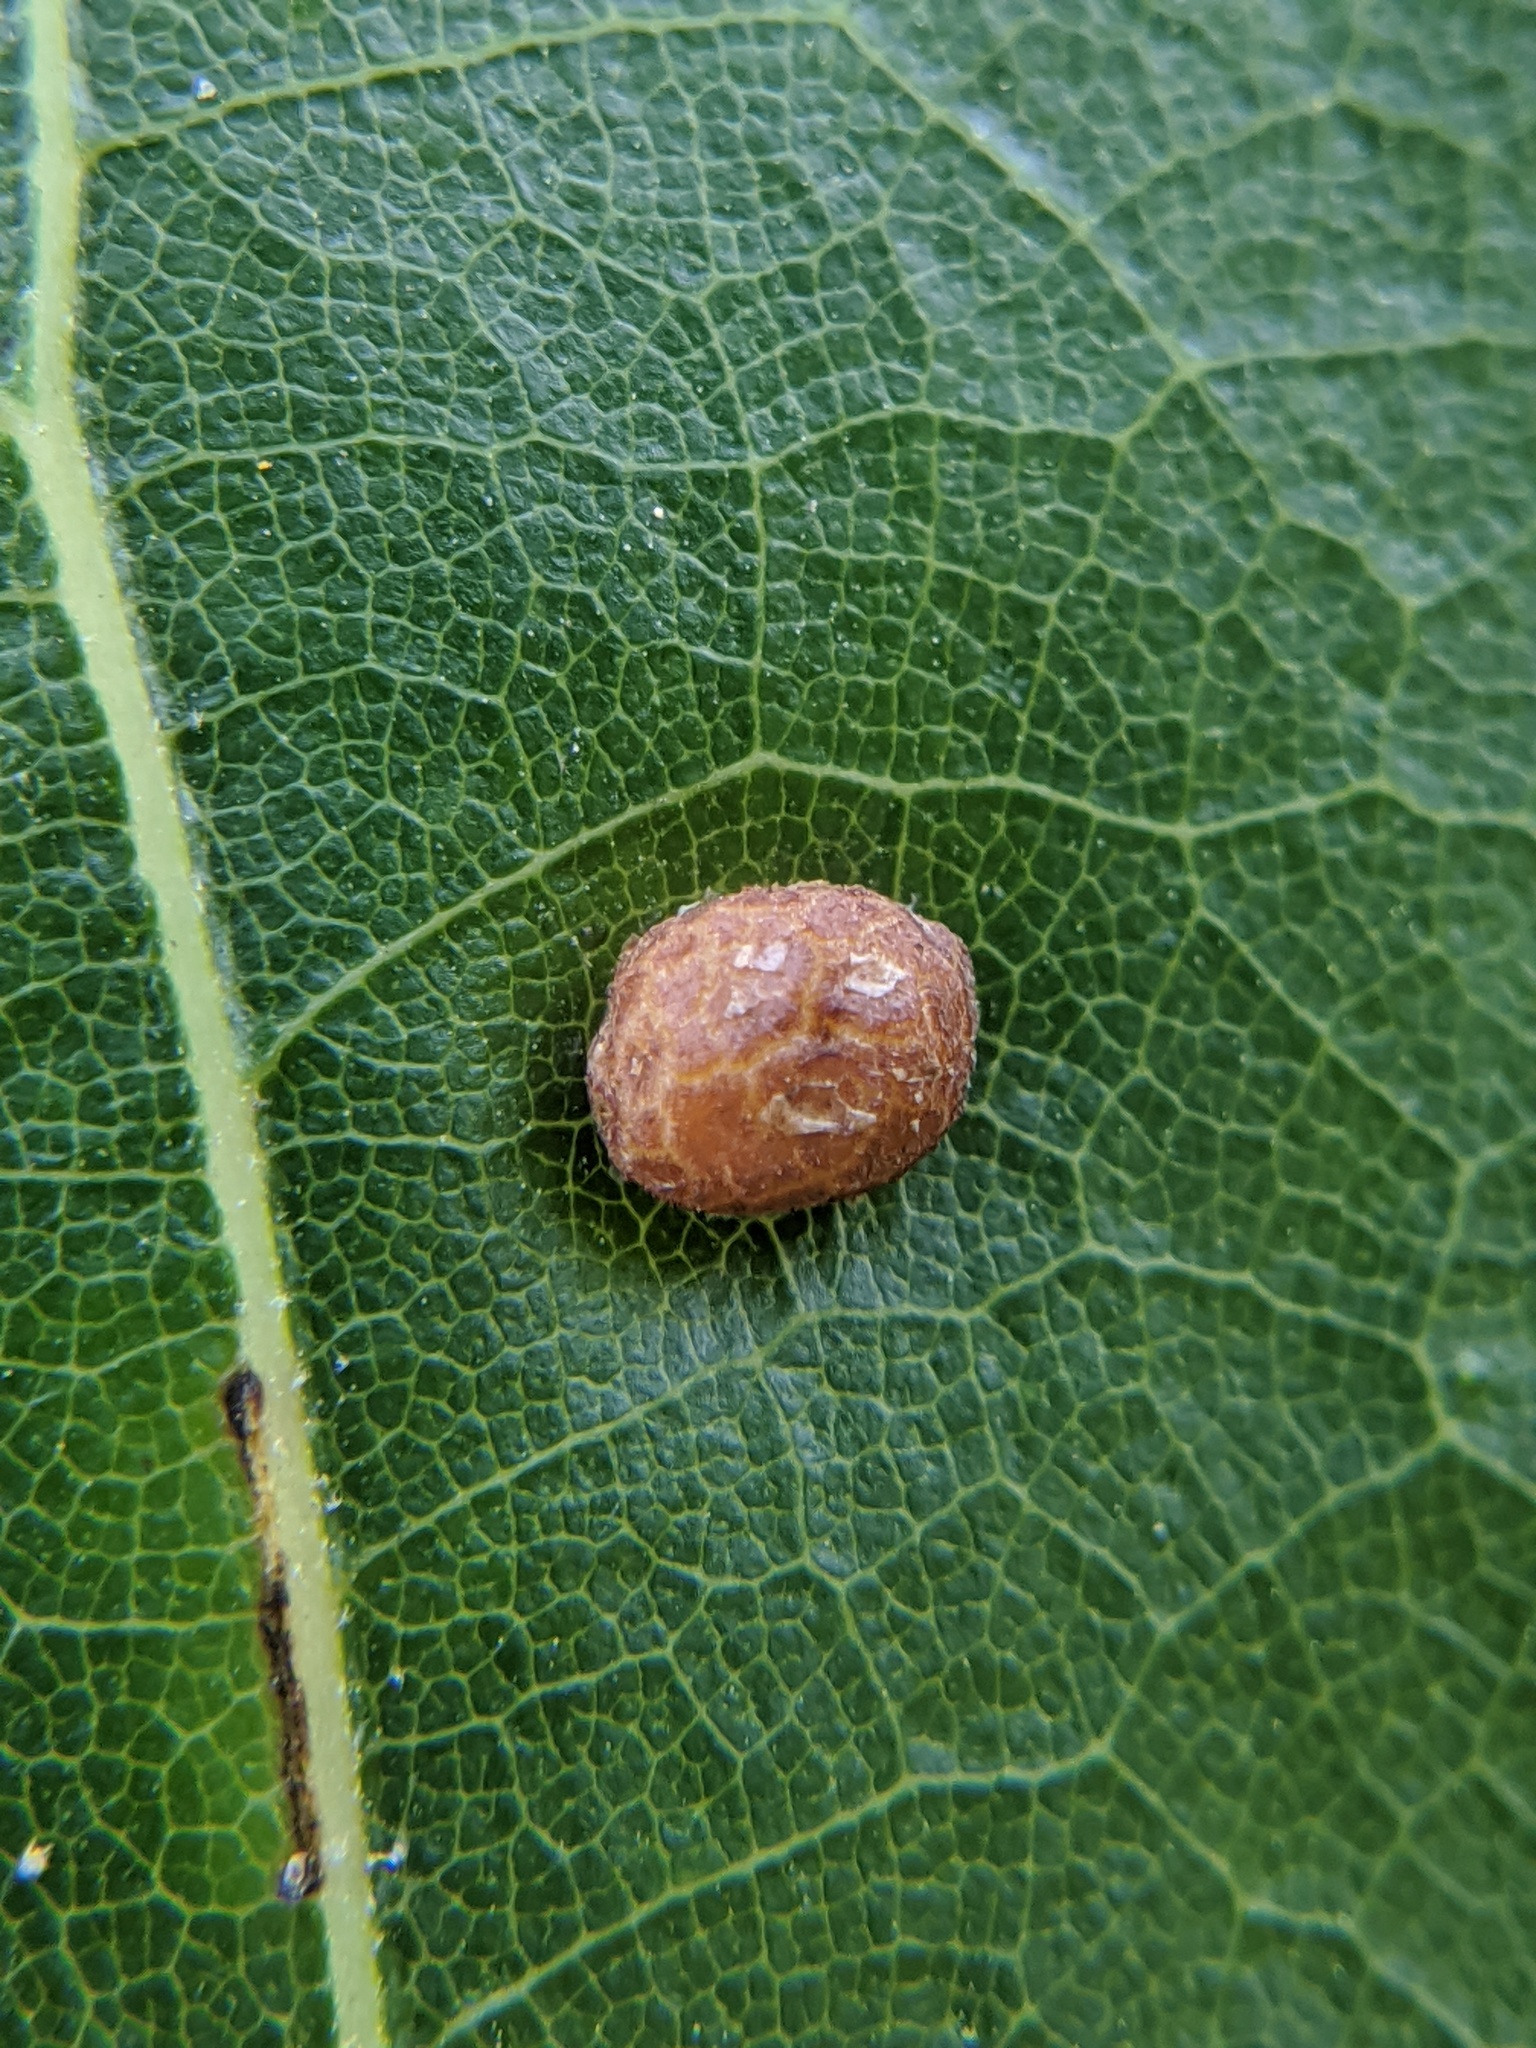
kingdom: Animalia
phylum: Arthropoda
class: Insecta
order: Diptera
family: Cecidomyiidae
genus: Polystepha
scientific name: Polystepha pilulae
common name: Oak leaf gall midge
